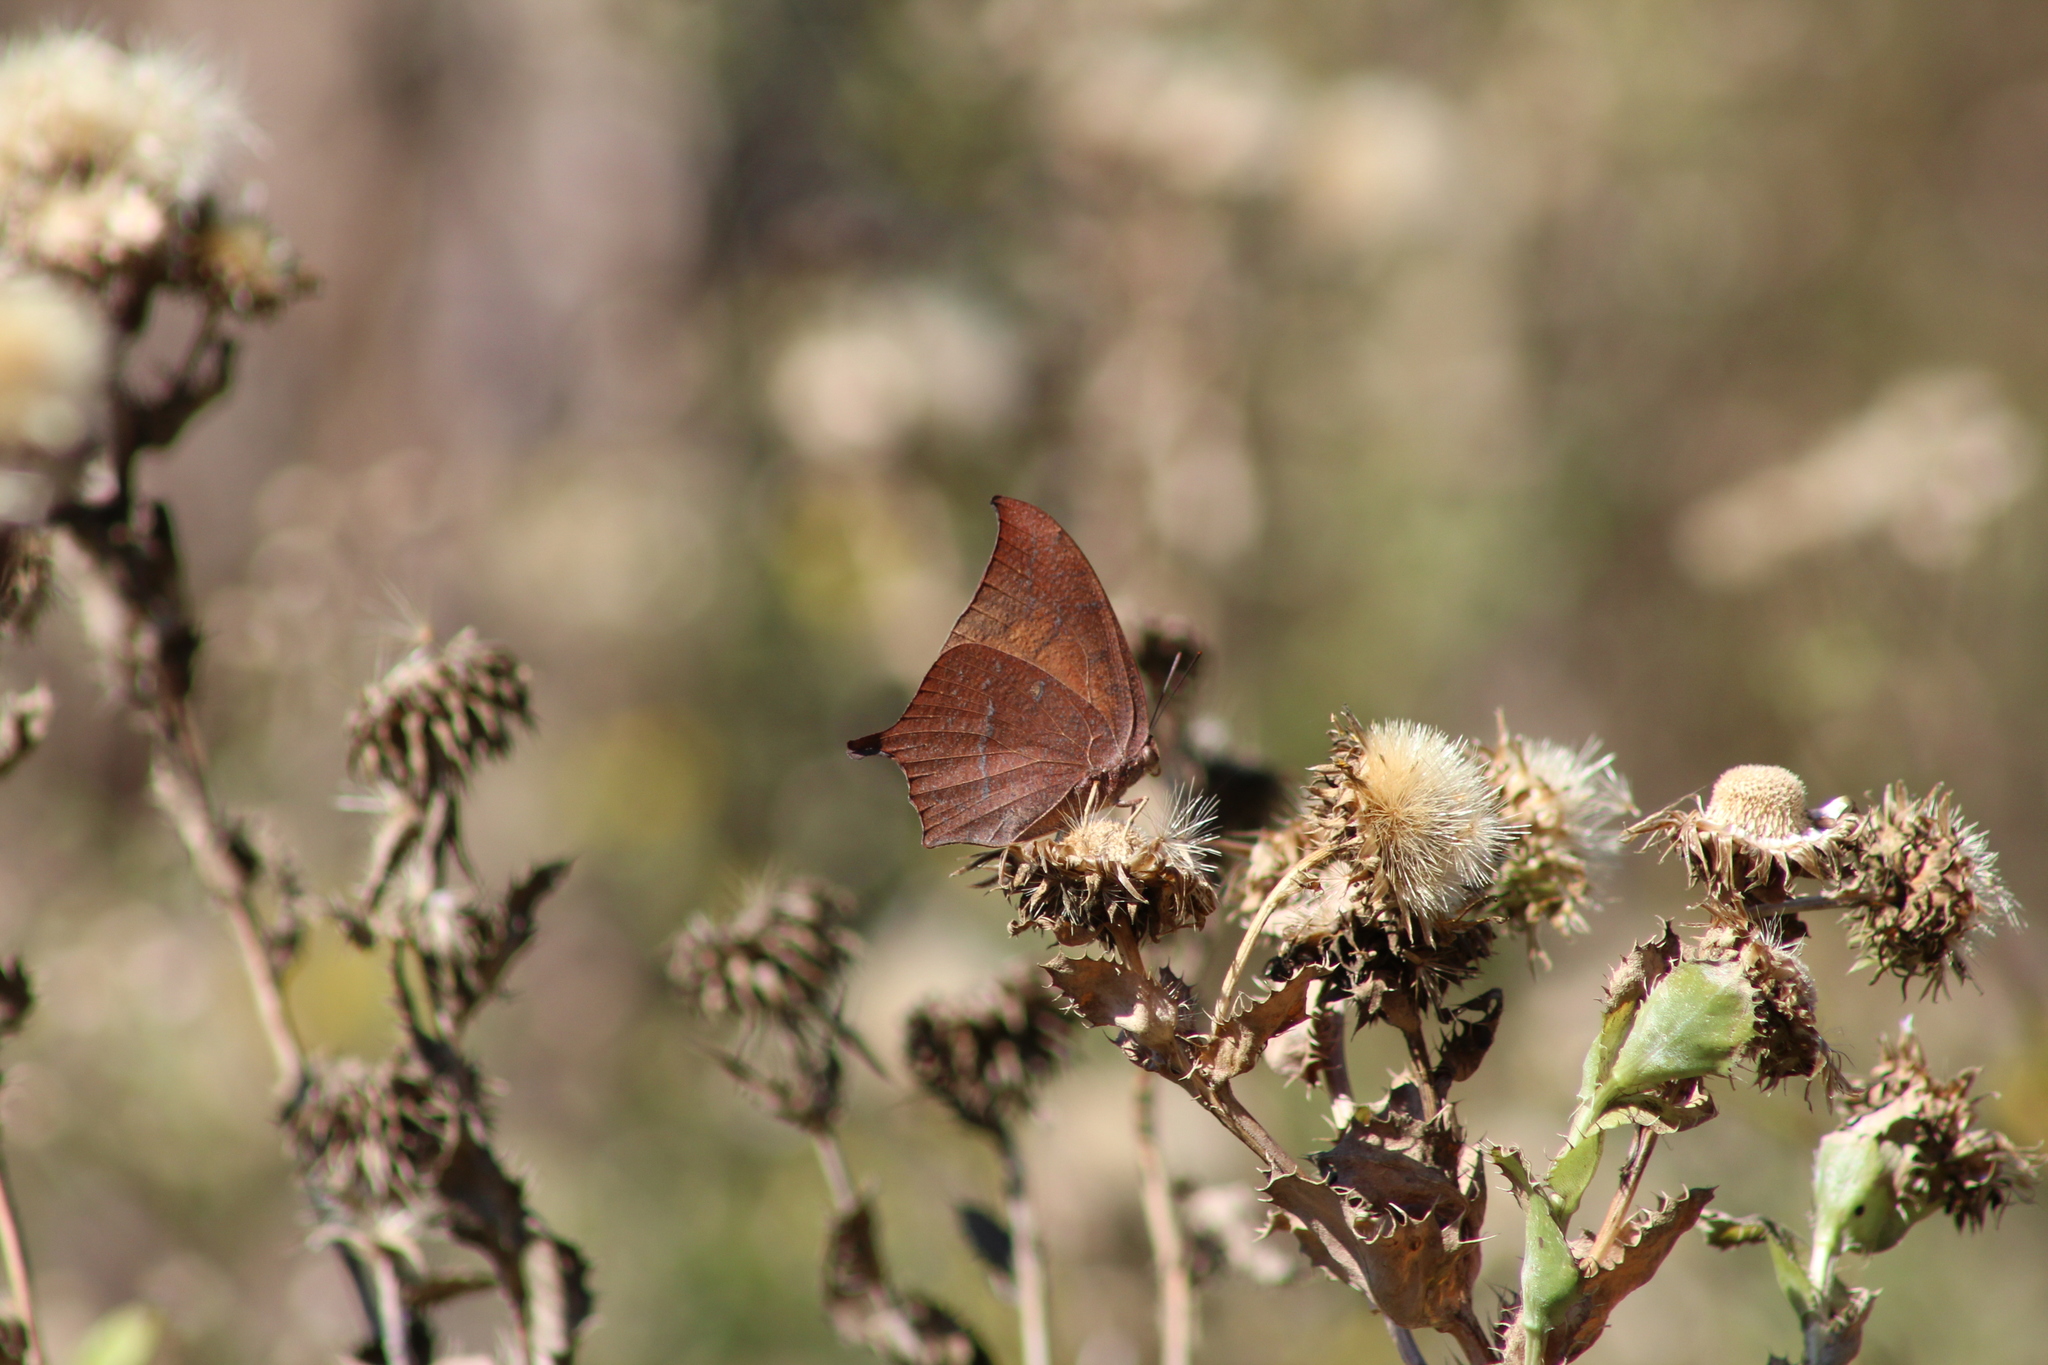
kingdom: Animalia
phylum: Arthropoda
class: Insecta
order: Lepidoptera
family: Nymphalidae
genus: Anaea
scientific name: Anaea andria
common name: Goatweed leafwing
